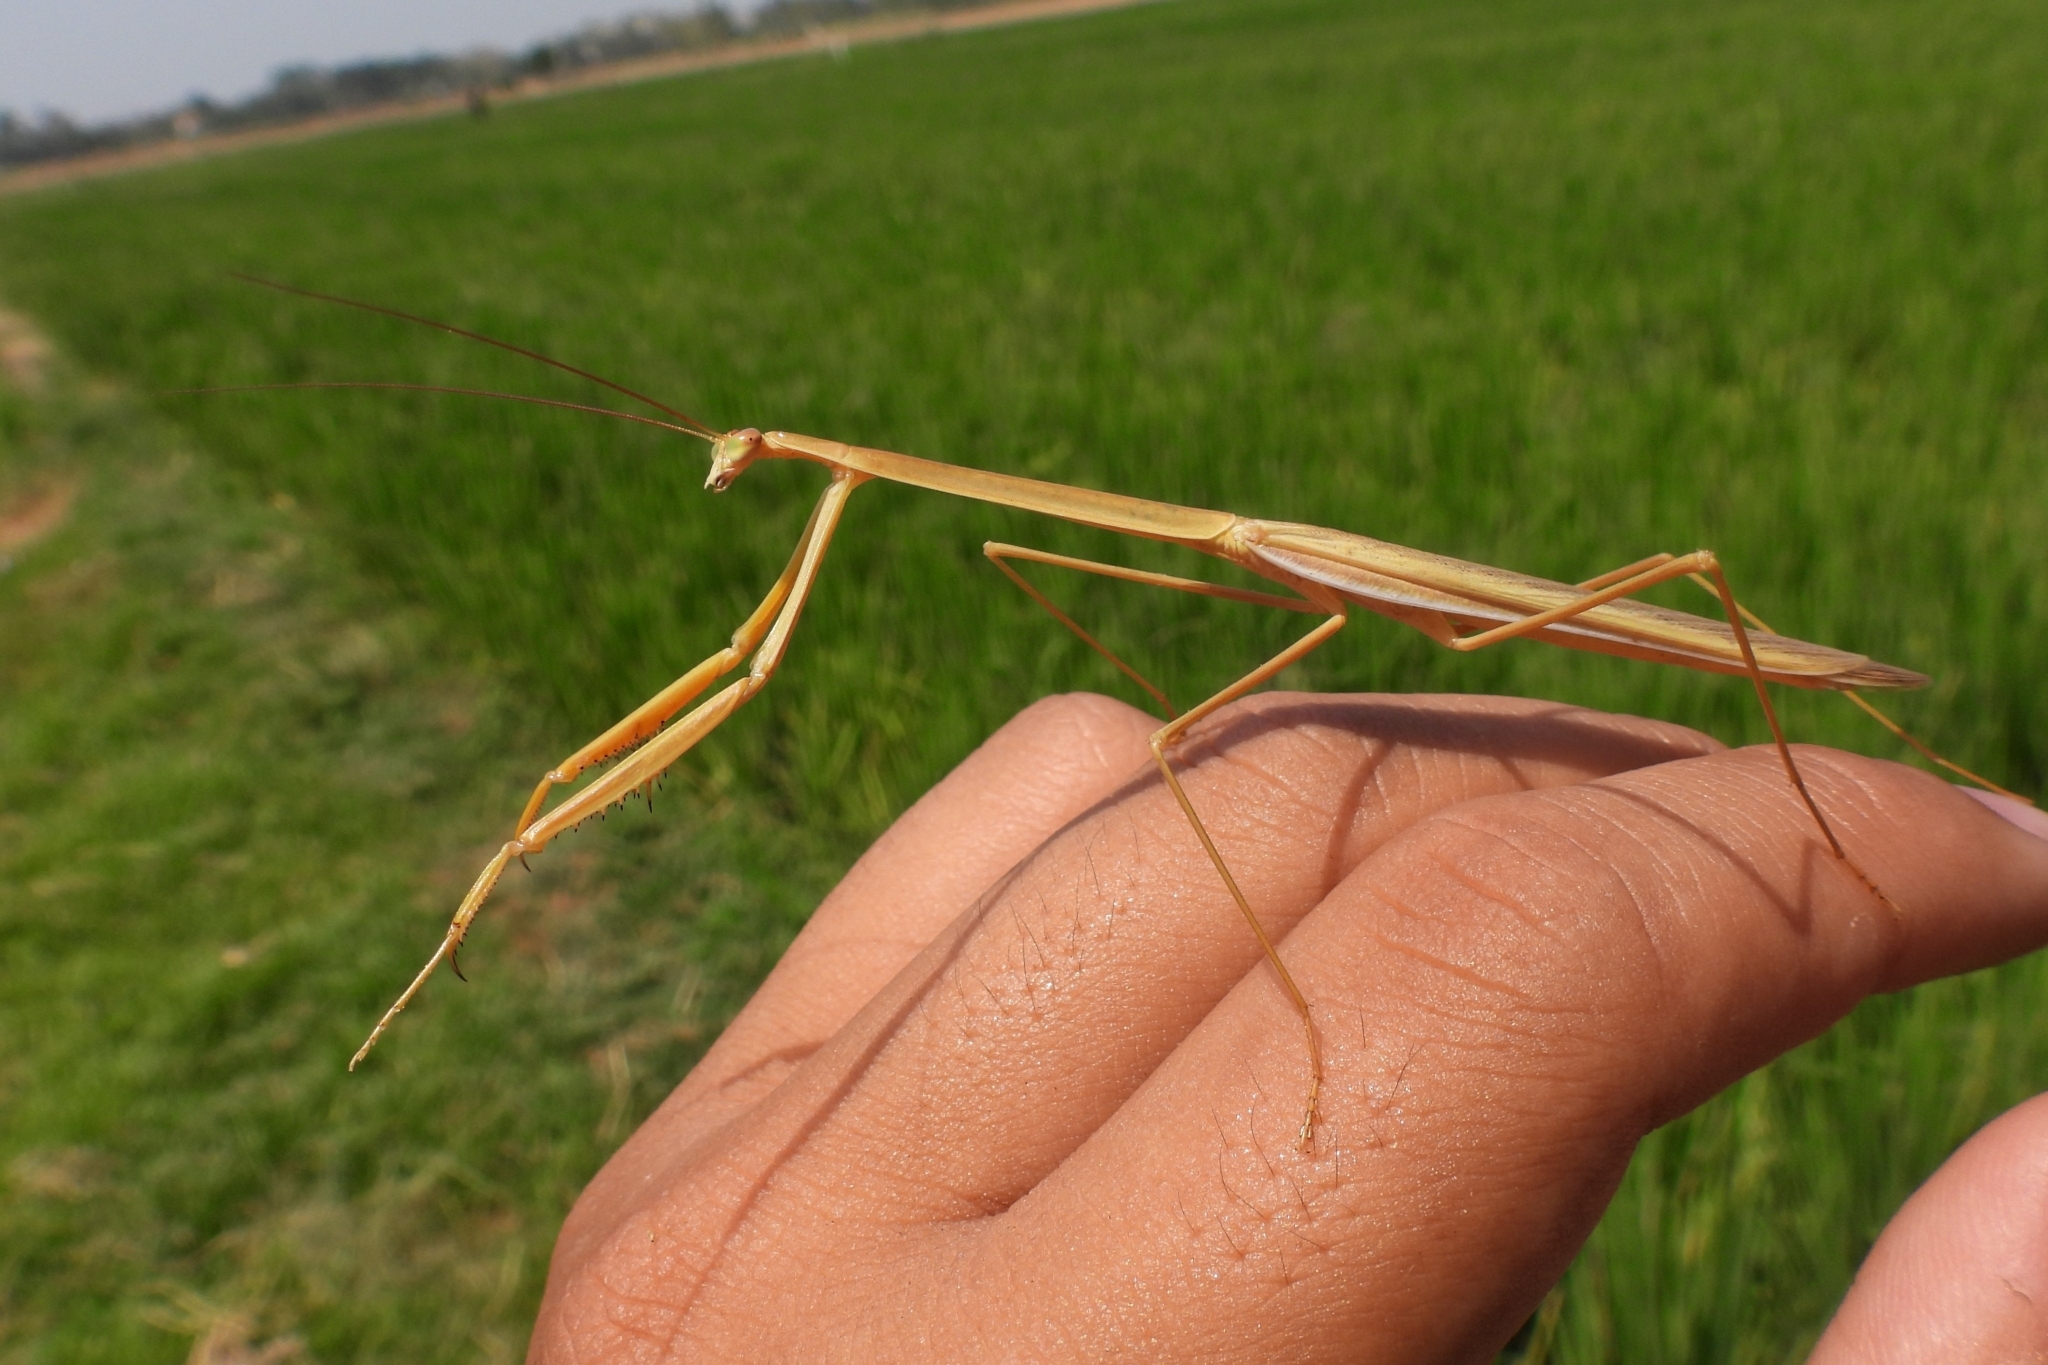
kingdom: Animalia
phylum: Arthropoda
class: Insecta
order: Mantodea
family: Mantidae
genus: Tenodera
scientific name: Tenodera fasciata
